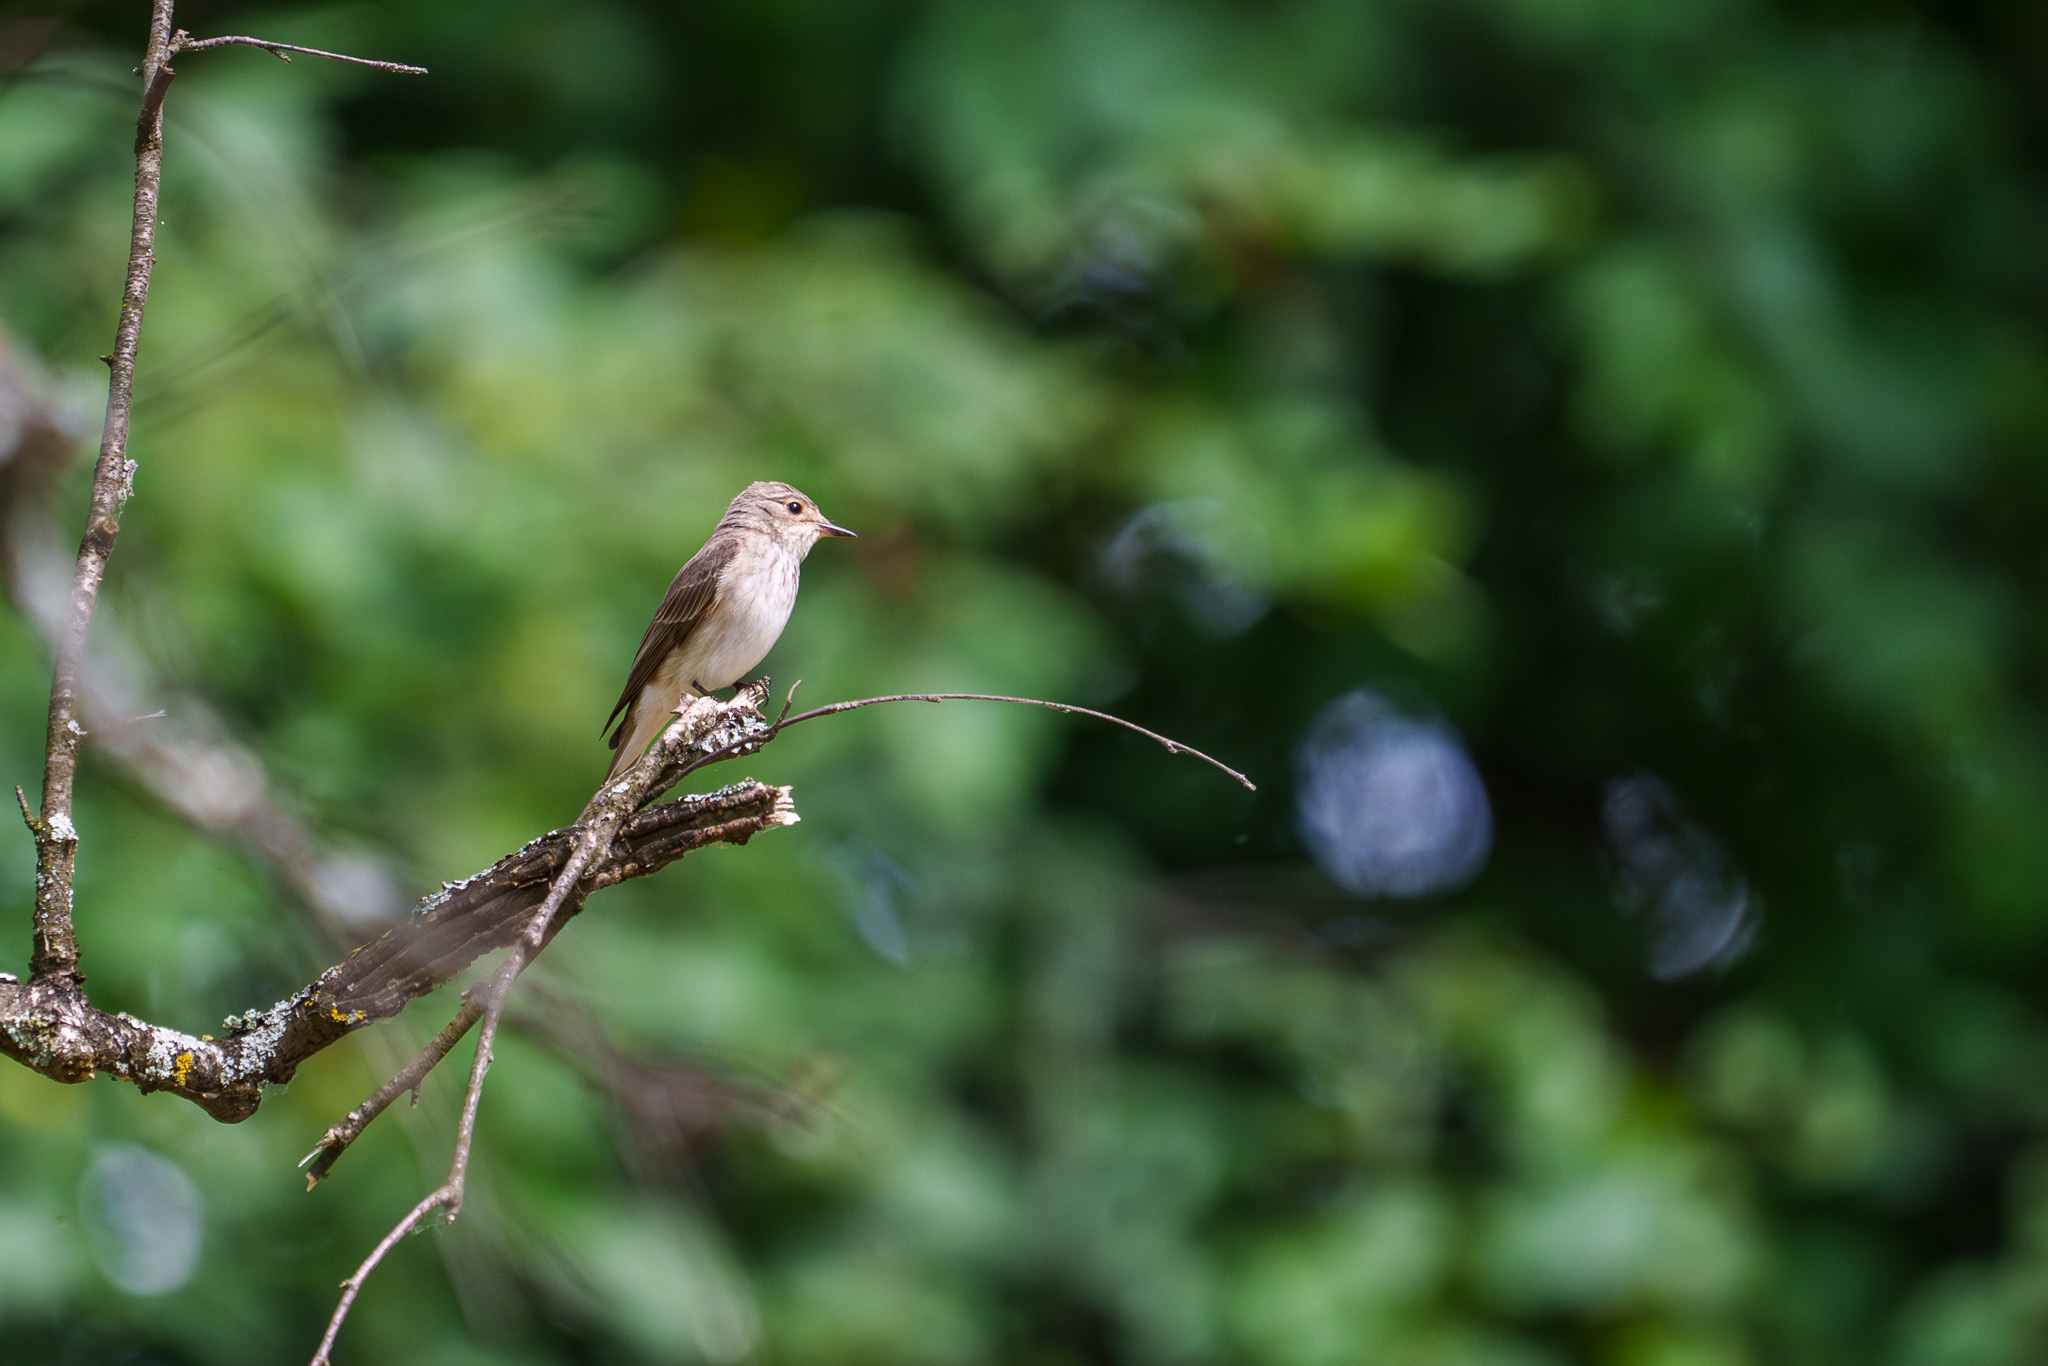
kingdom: Animalia
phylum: Chordata
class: Aves
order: Passeriformes
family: Muscicapidae
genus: Muscicapa
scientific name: Muscicapa striata
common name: Spotted flycatcher
